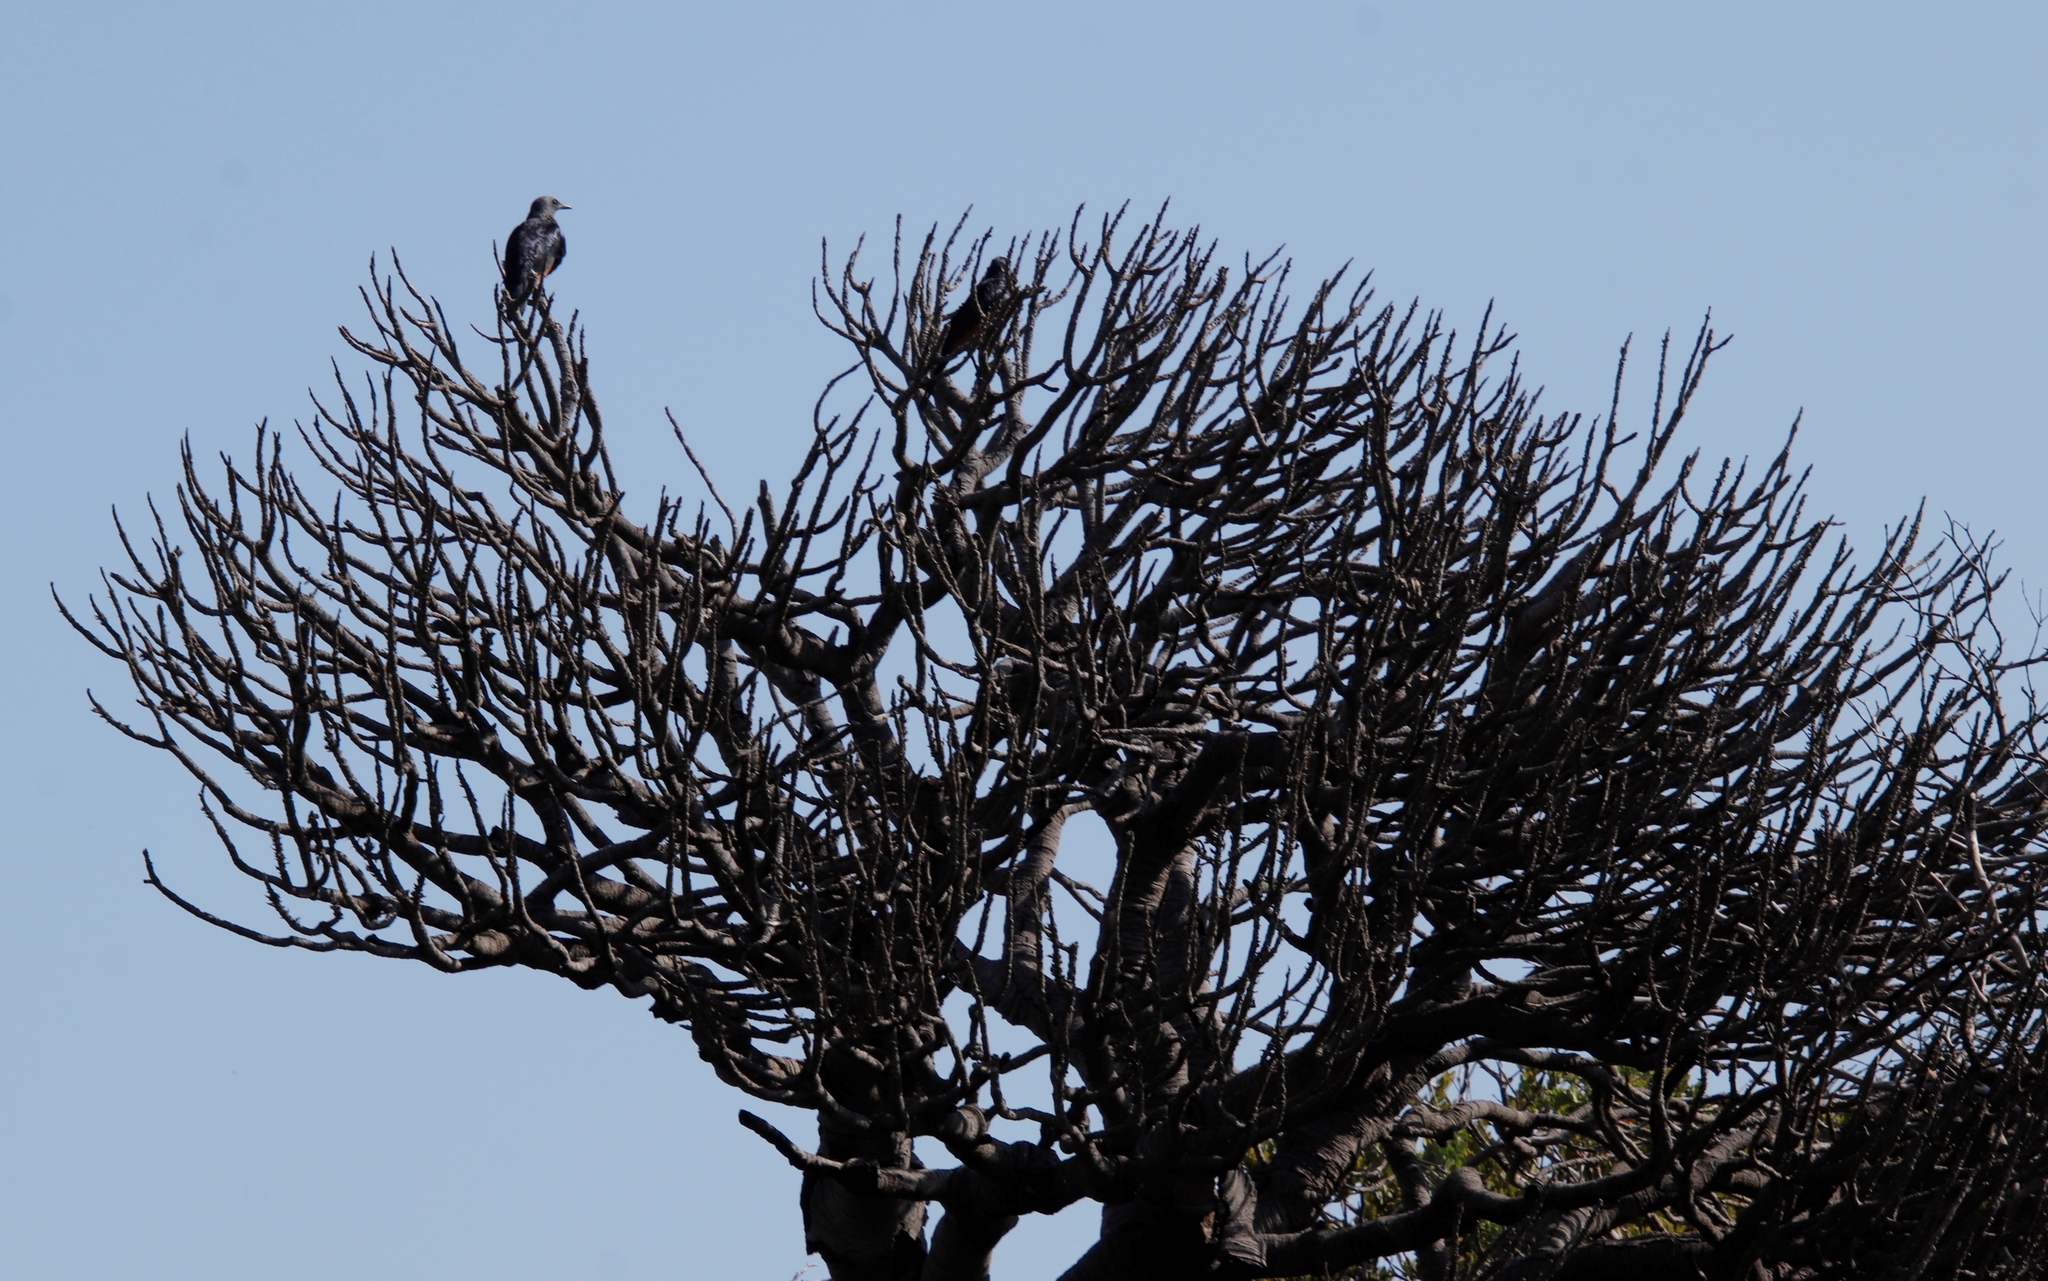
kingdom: Animalia
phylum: Chordata
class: Aves
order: Passeriformes
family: Sturnidae
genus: Onychognathus
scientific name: Onychognathus morio
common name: Red-winged starling
